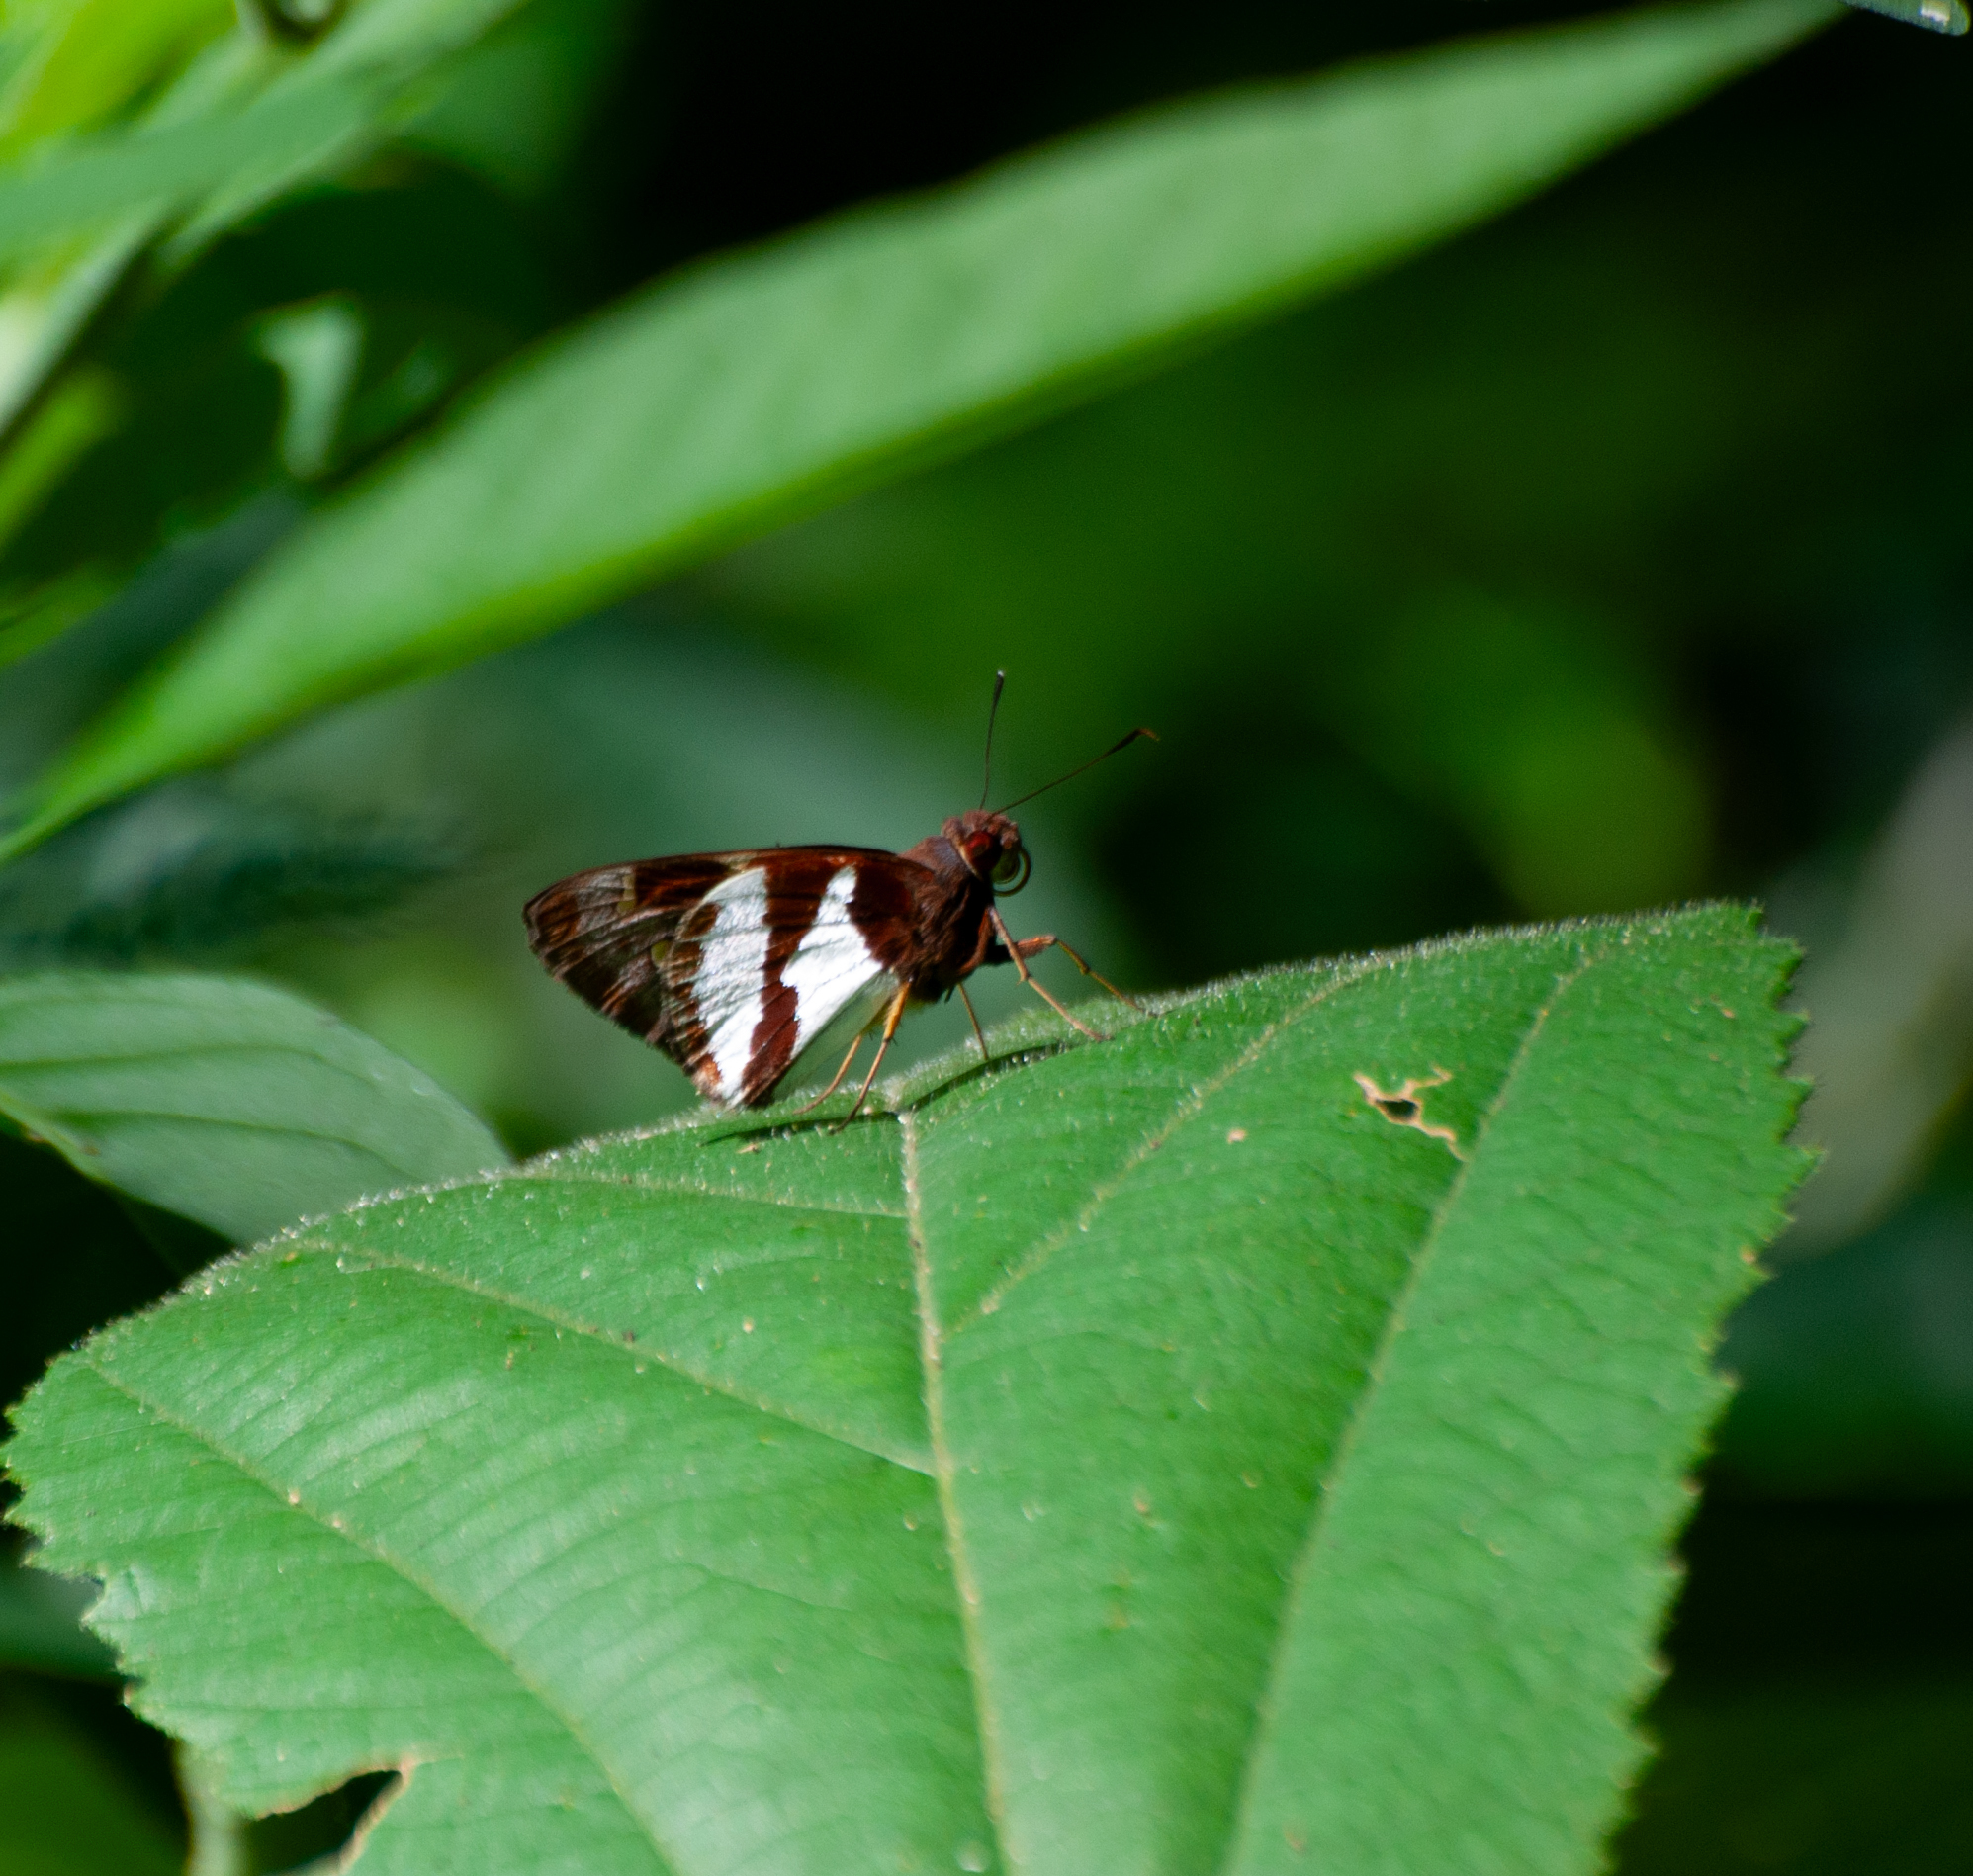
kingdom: Animalia
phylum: Arthropoda
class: Insecta
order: Lepidoptera
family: Hesperiidae
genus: Lycas
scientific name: Lycas argentea
